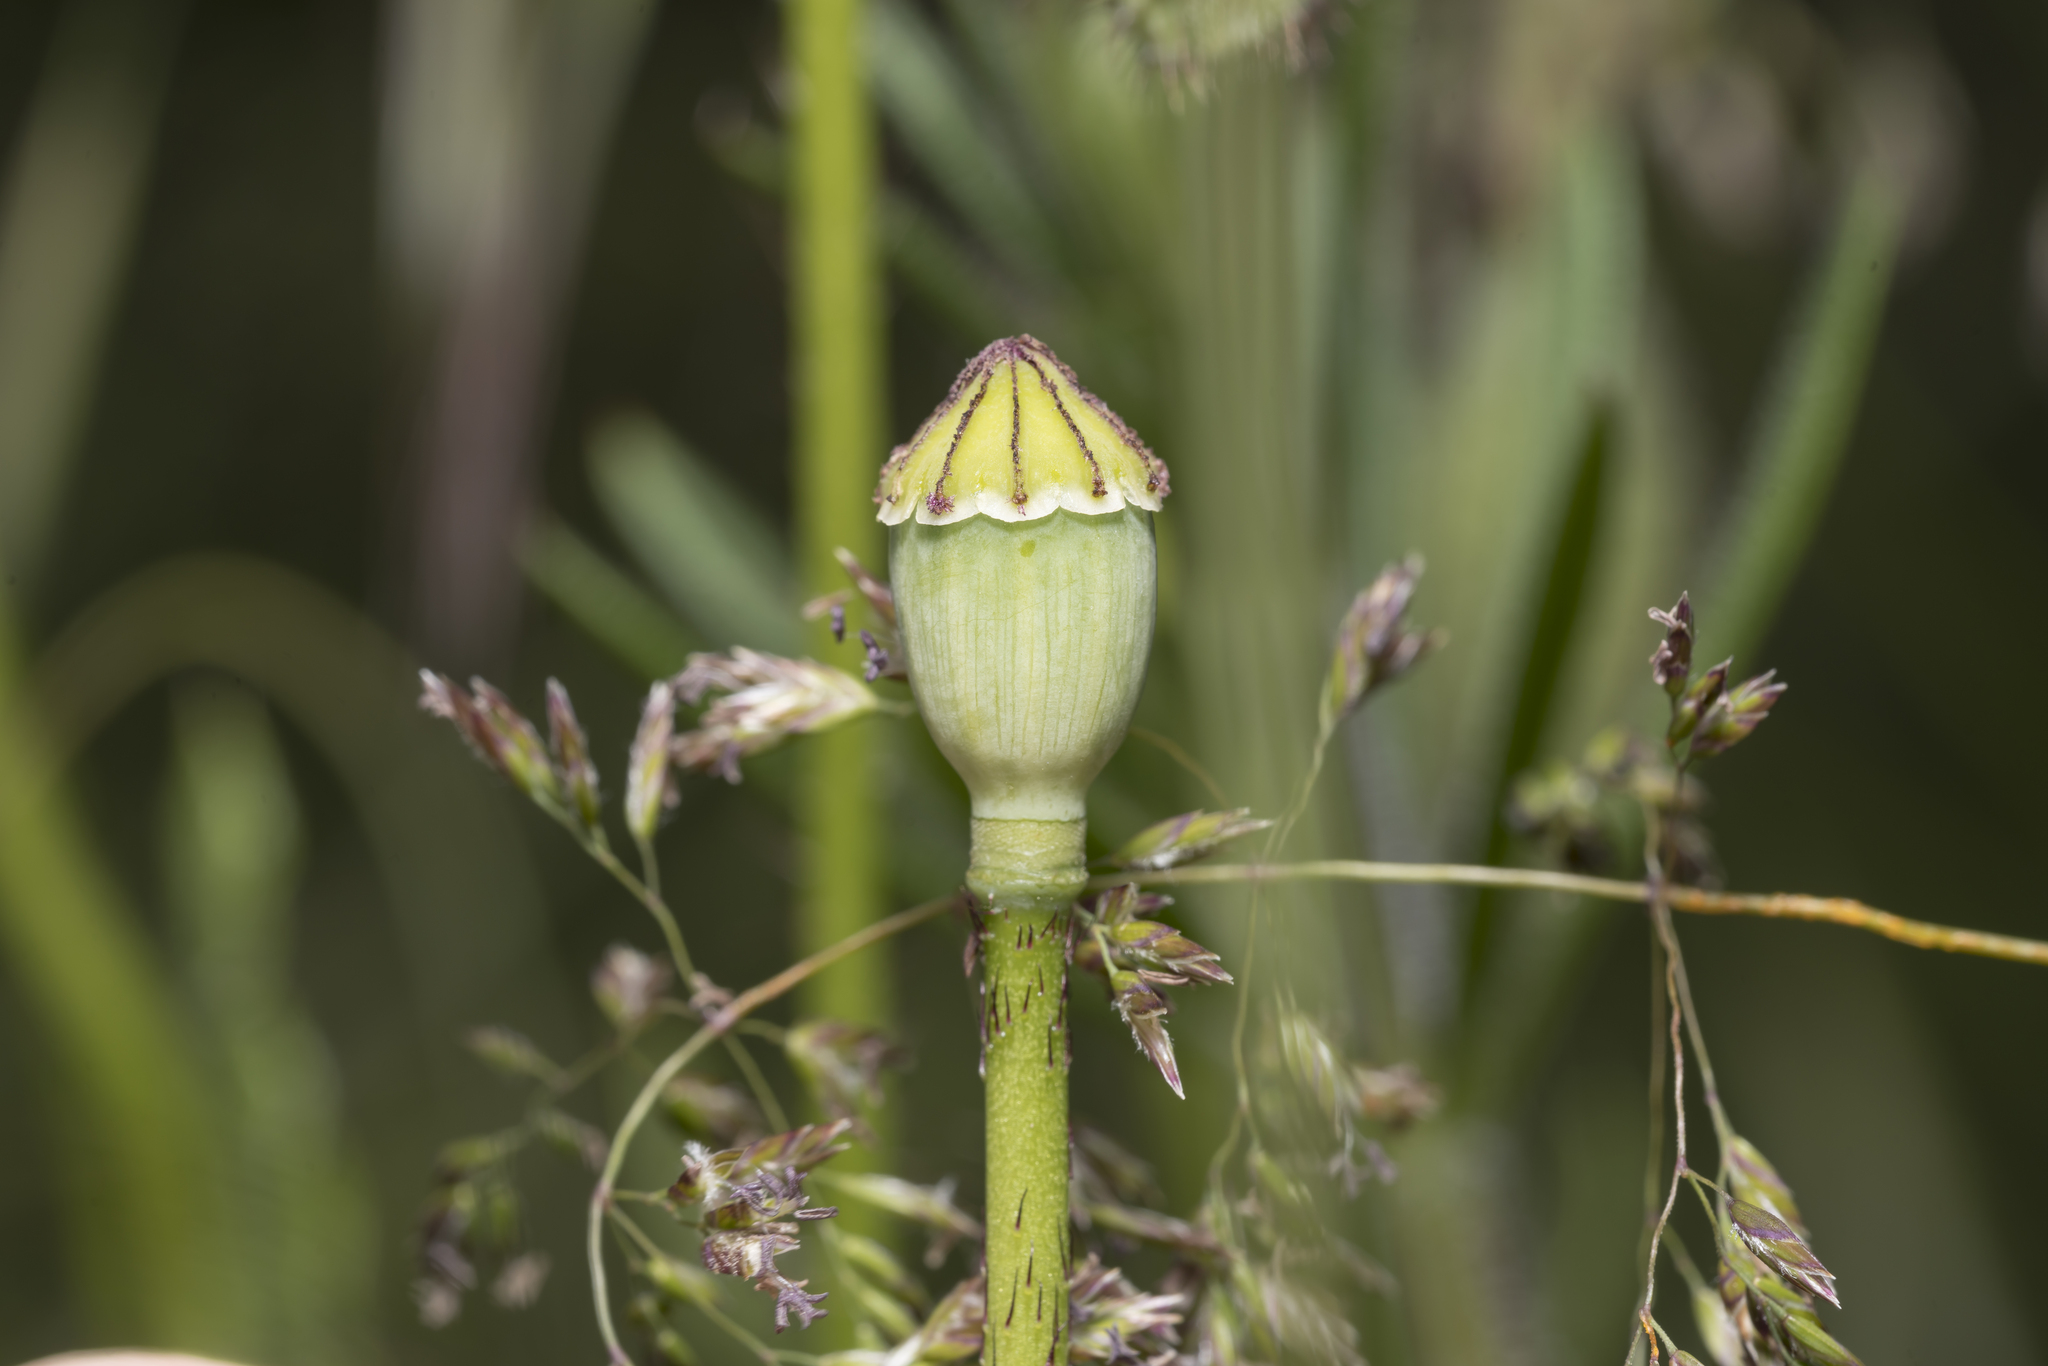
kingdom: Plantae
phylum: Tracheophyta
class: Magnoliopsida
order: Ranunculales
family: Papaveraceae
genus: Papaver
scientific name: Papaver rhoeas
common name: Corn poppy
